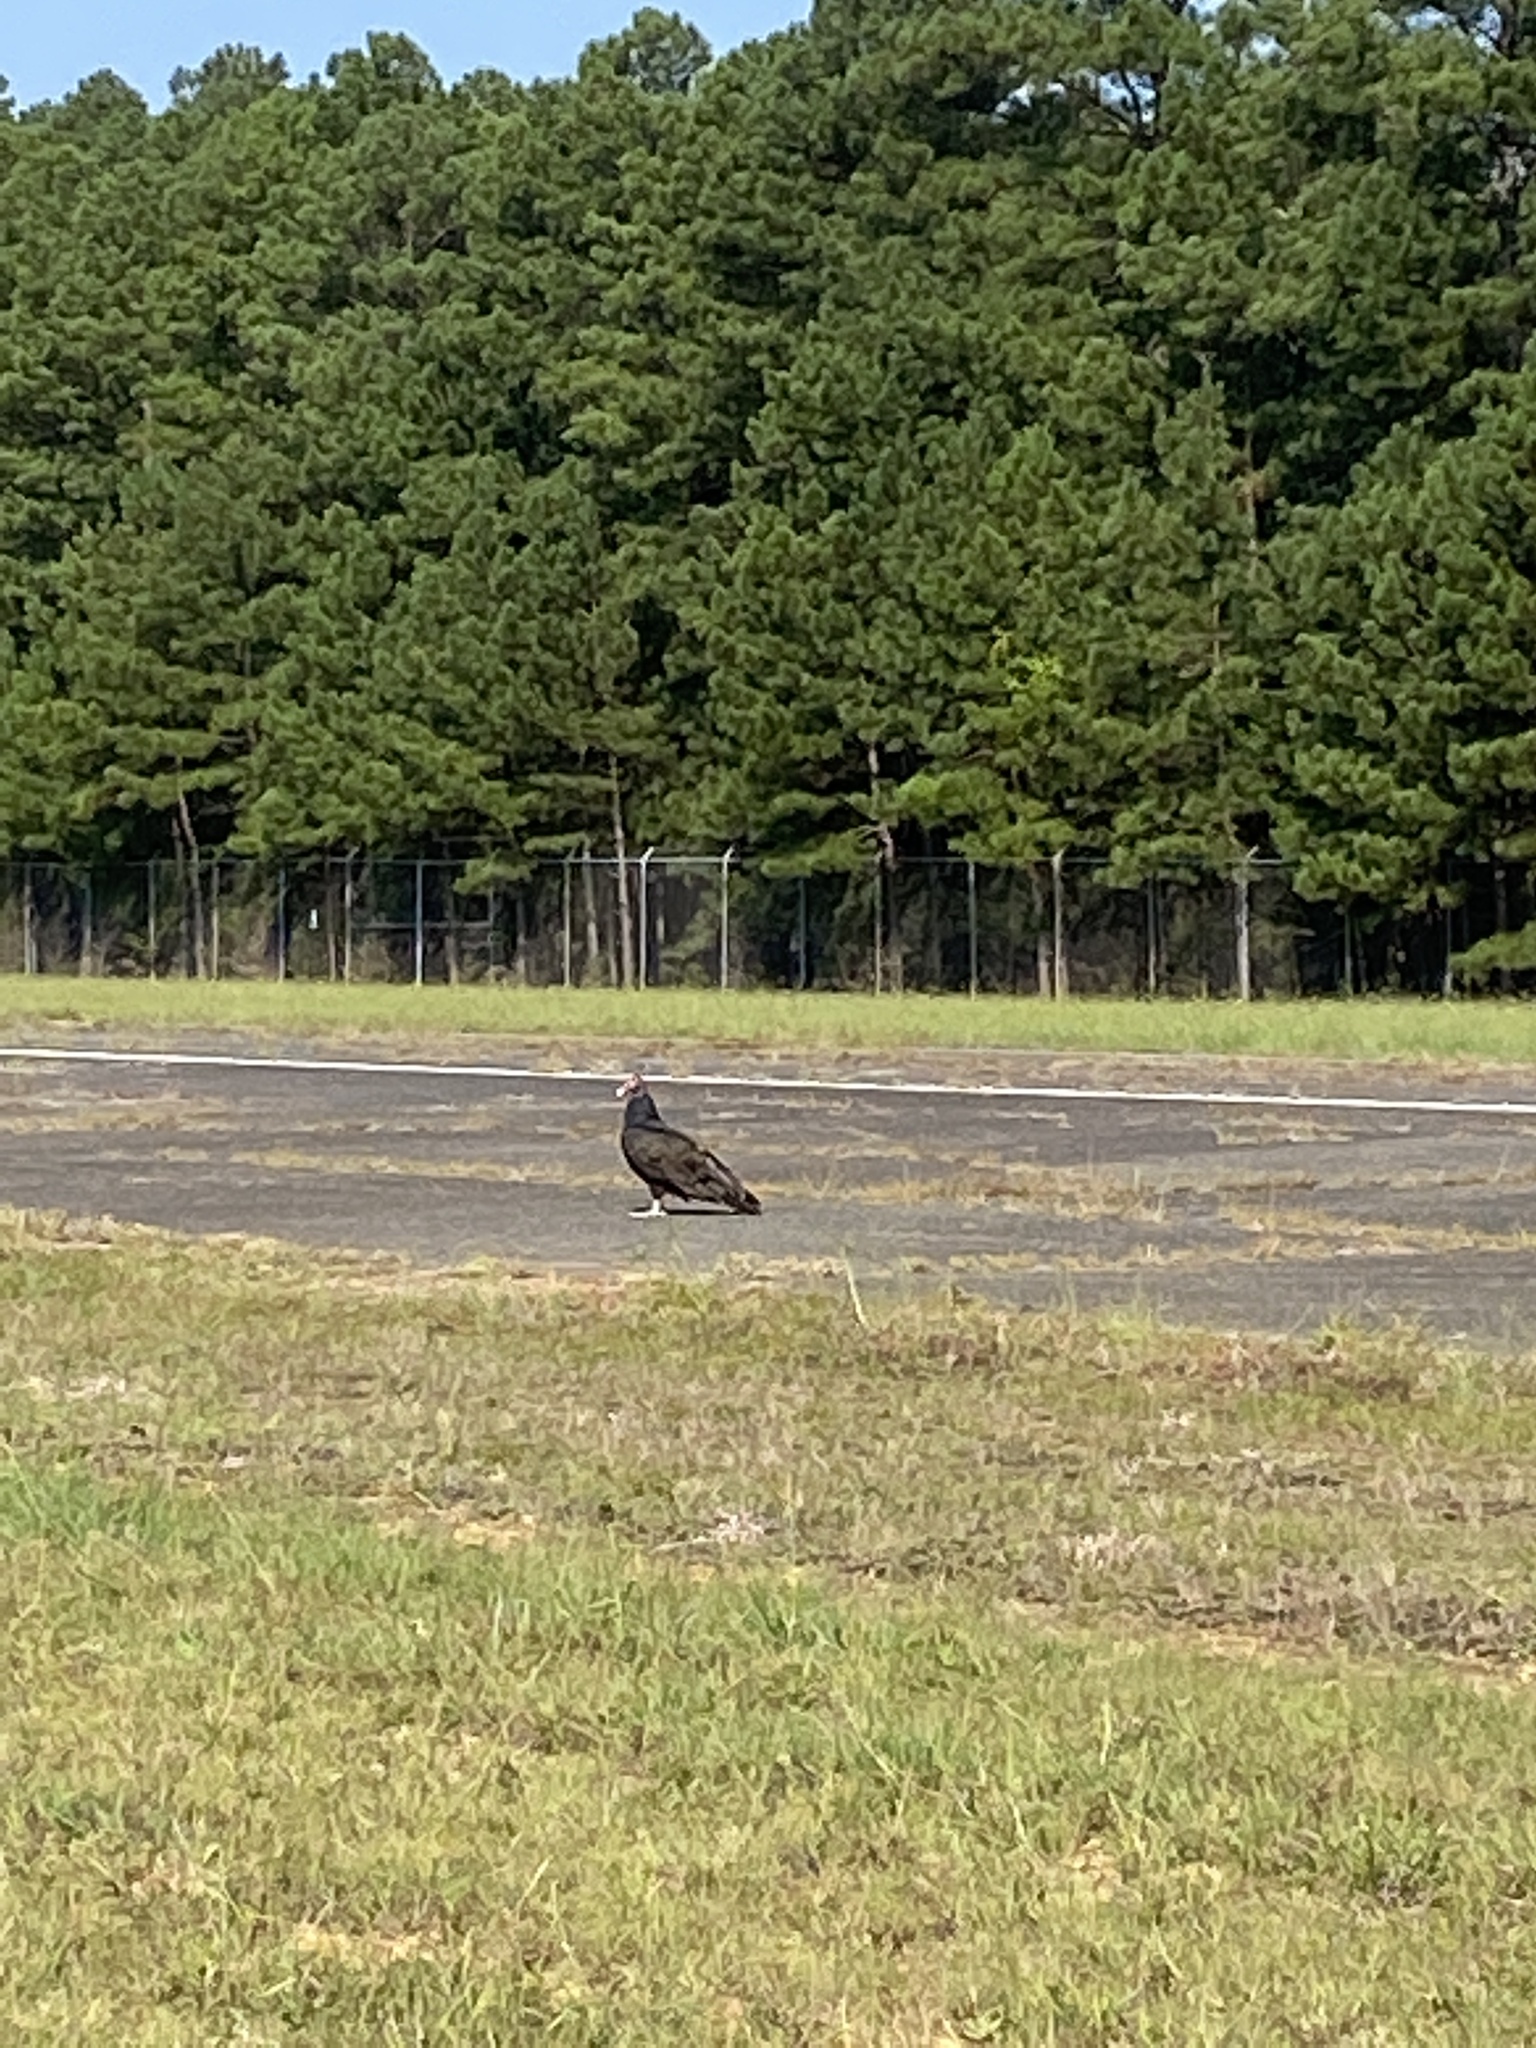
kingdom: Animalia
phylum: Chordata
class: Aves
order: Accipitriformes
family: Cathartidae
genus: Cathartes
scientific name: Cathartes aura
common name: Turkey vulture
